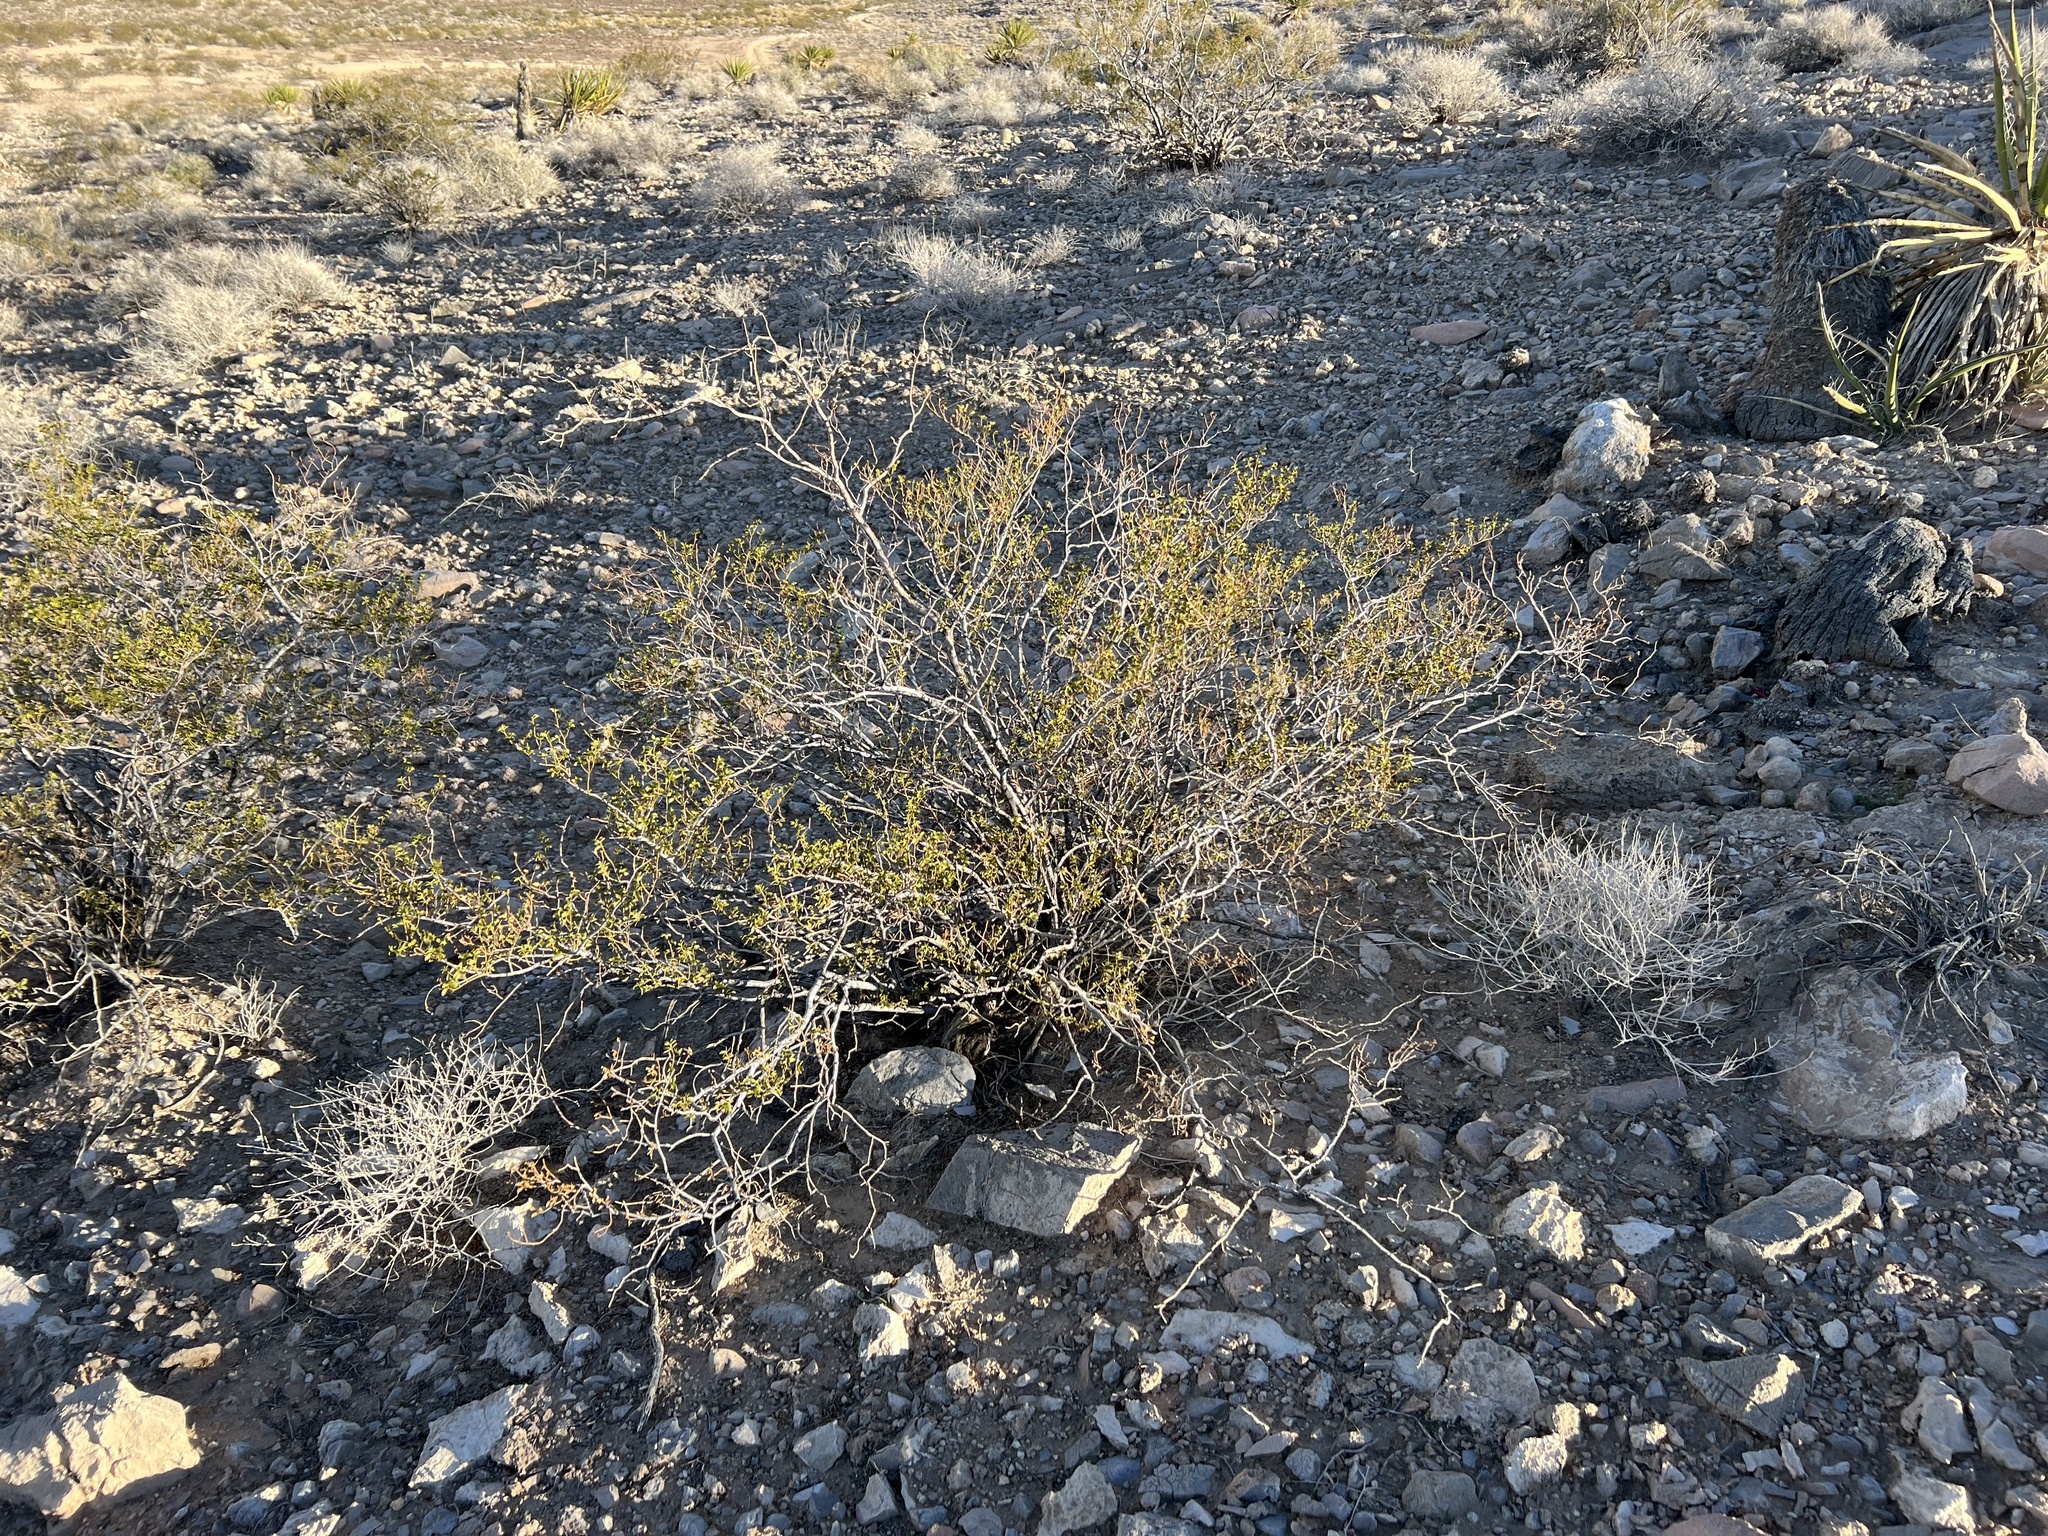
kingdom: Plantae
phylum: Tracheophyta
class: Magnoliopsida
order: Zygophyllales
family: Zygophyllaceae
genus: Larrea
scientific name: Larrea tridentata
